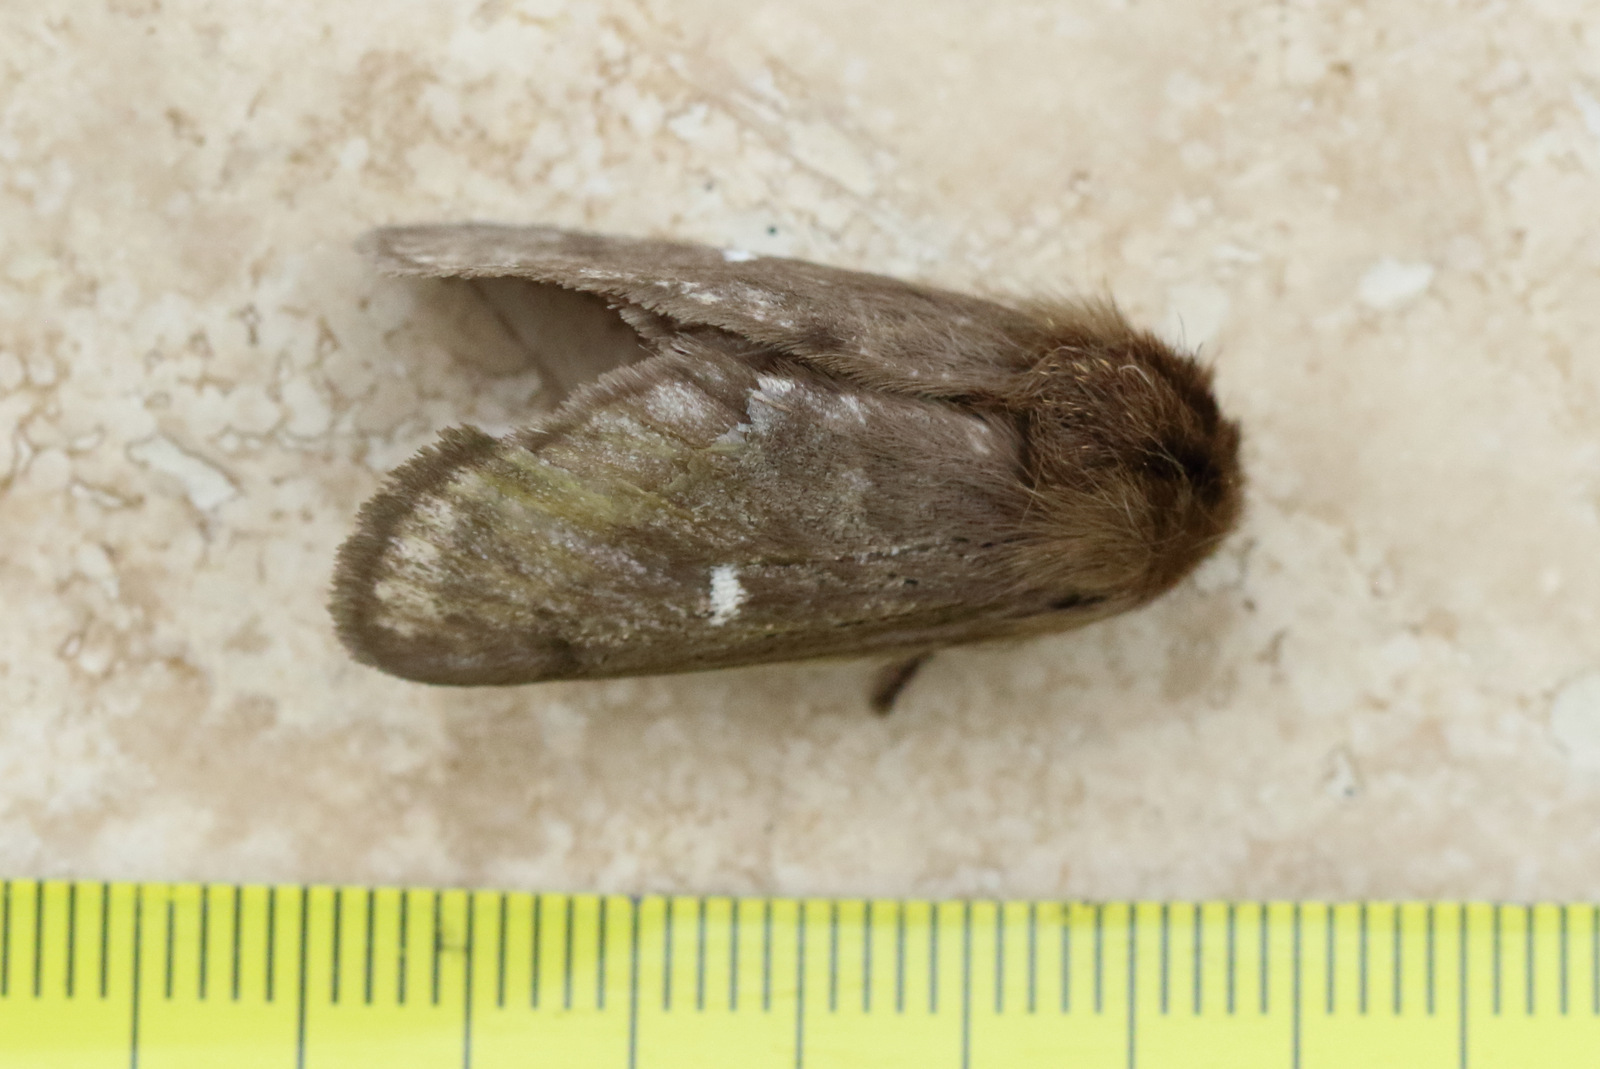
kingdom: Animalia
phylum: Arthropoda
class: Insecta
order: Lepidoptera
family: Notodontidae
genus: Ochrogaster
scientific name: Ochrogaster lunifer
